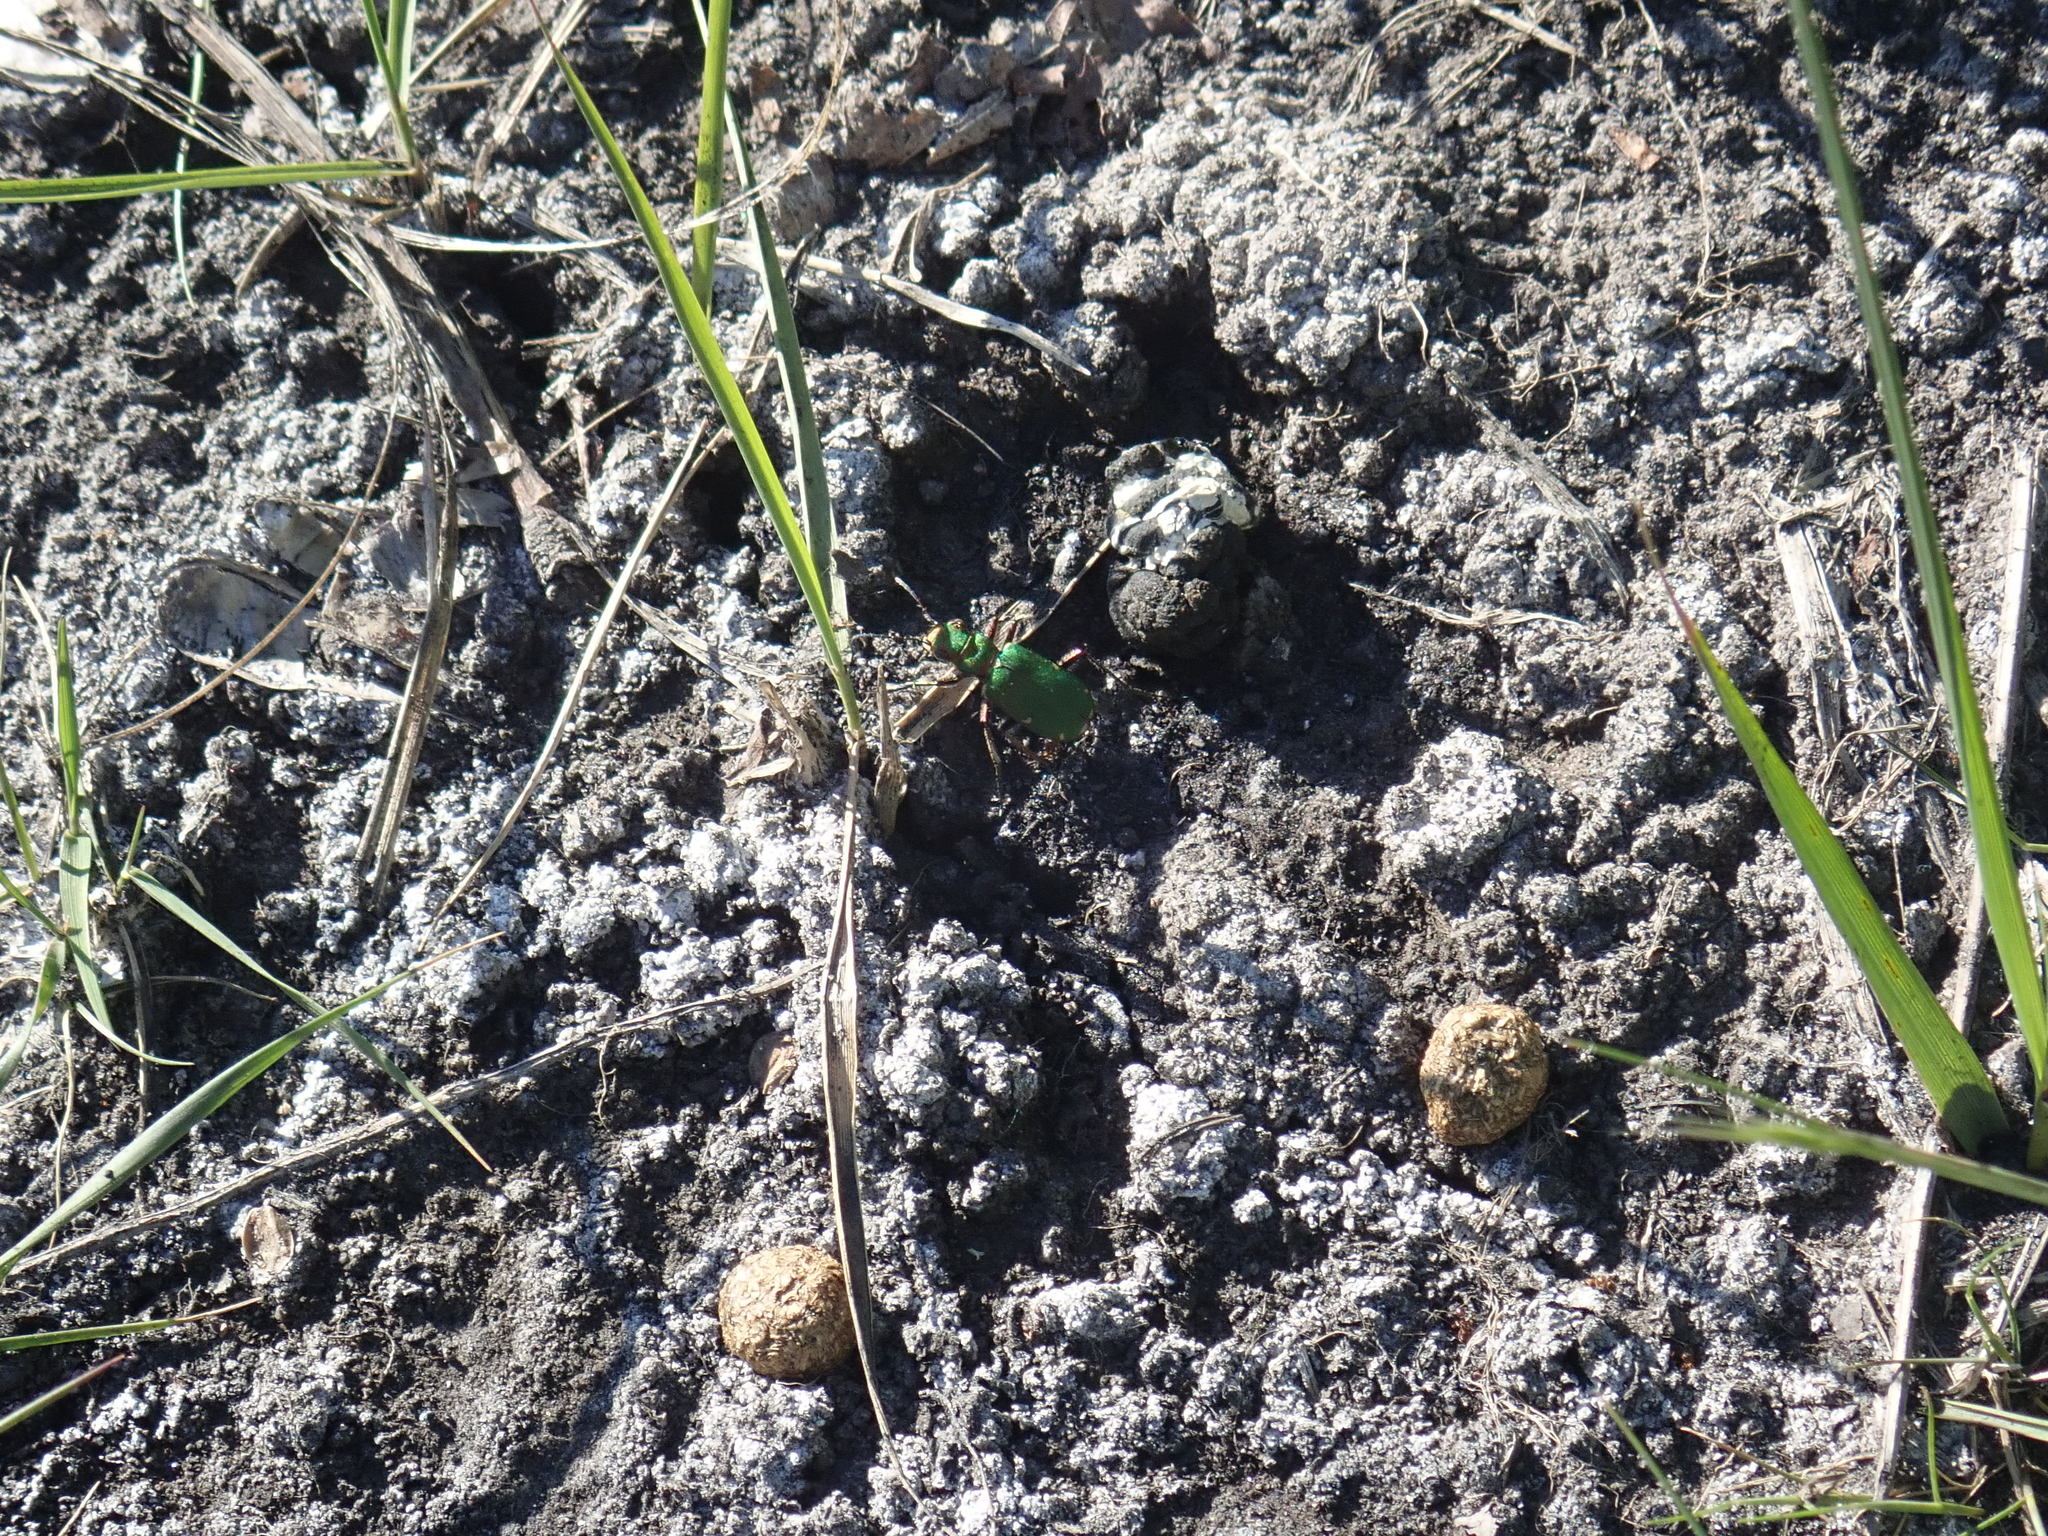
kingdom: Animalia
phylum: Arthropoda
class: Insecta
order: Coleoptera
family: Carabidae
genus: Cicindela
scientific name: Cicindela campestris
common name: Common tiger beetle
